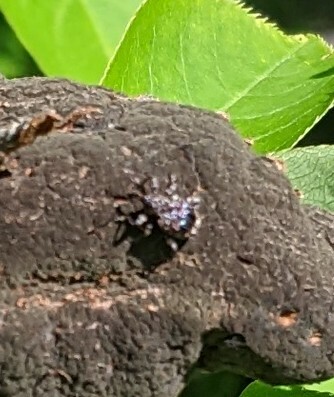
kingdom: Animalia
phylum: Arthropoda
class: Insecta
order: Coleoptera
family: Curculionidae
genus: Conotrachelus
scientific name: Conotrachelus nenuphar
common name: Plum curculio
